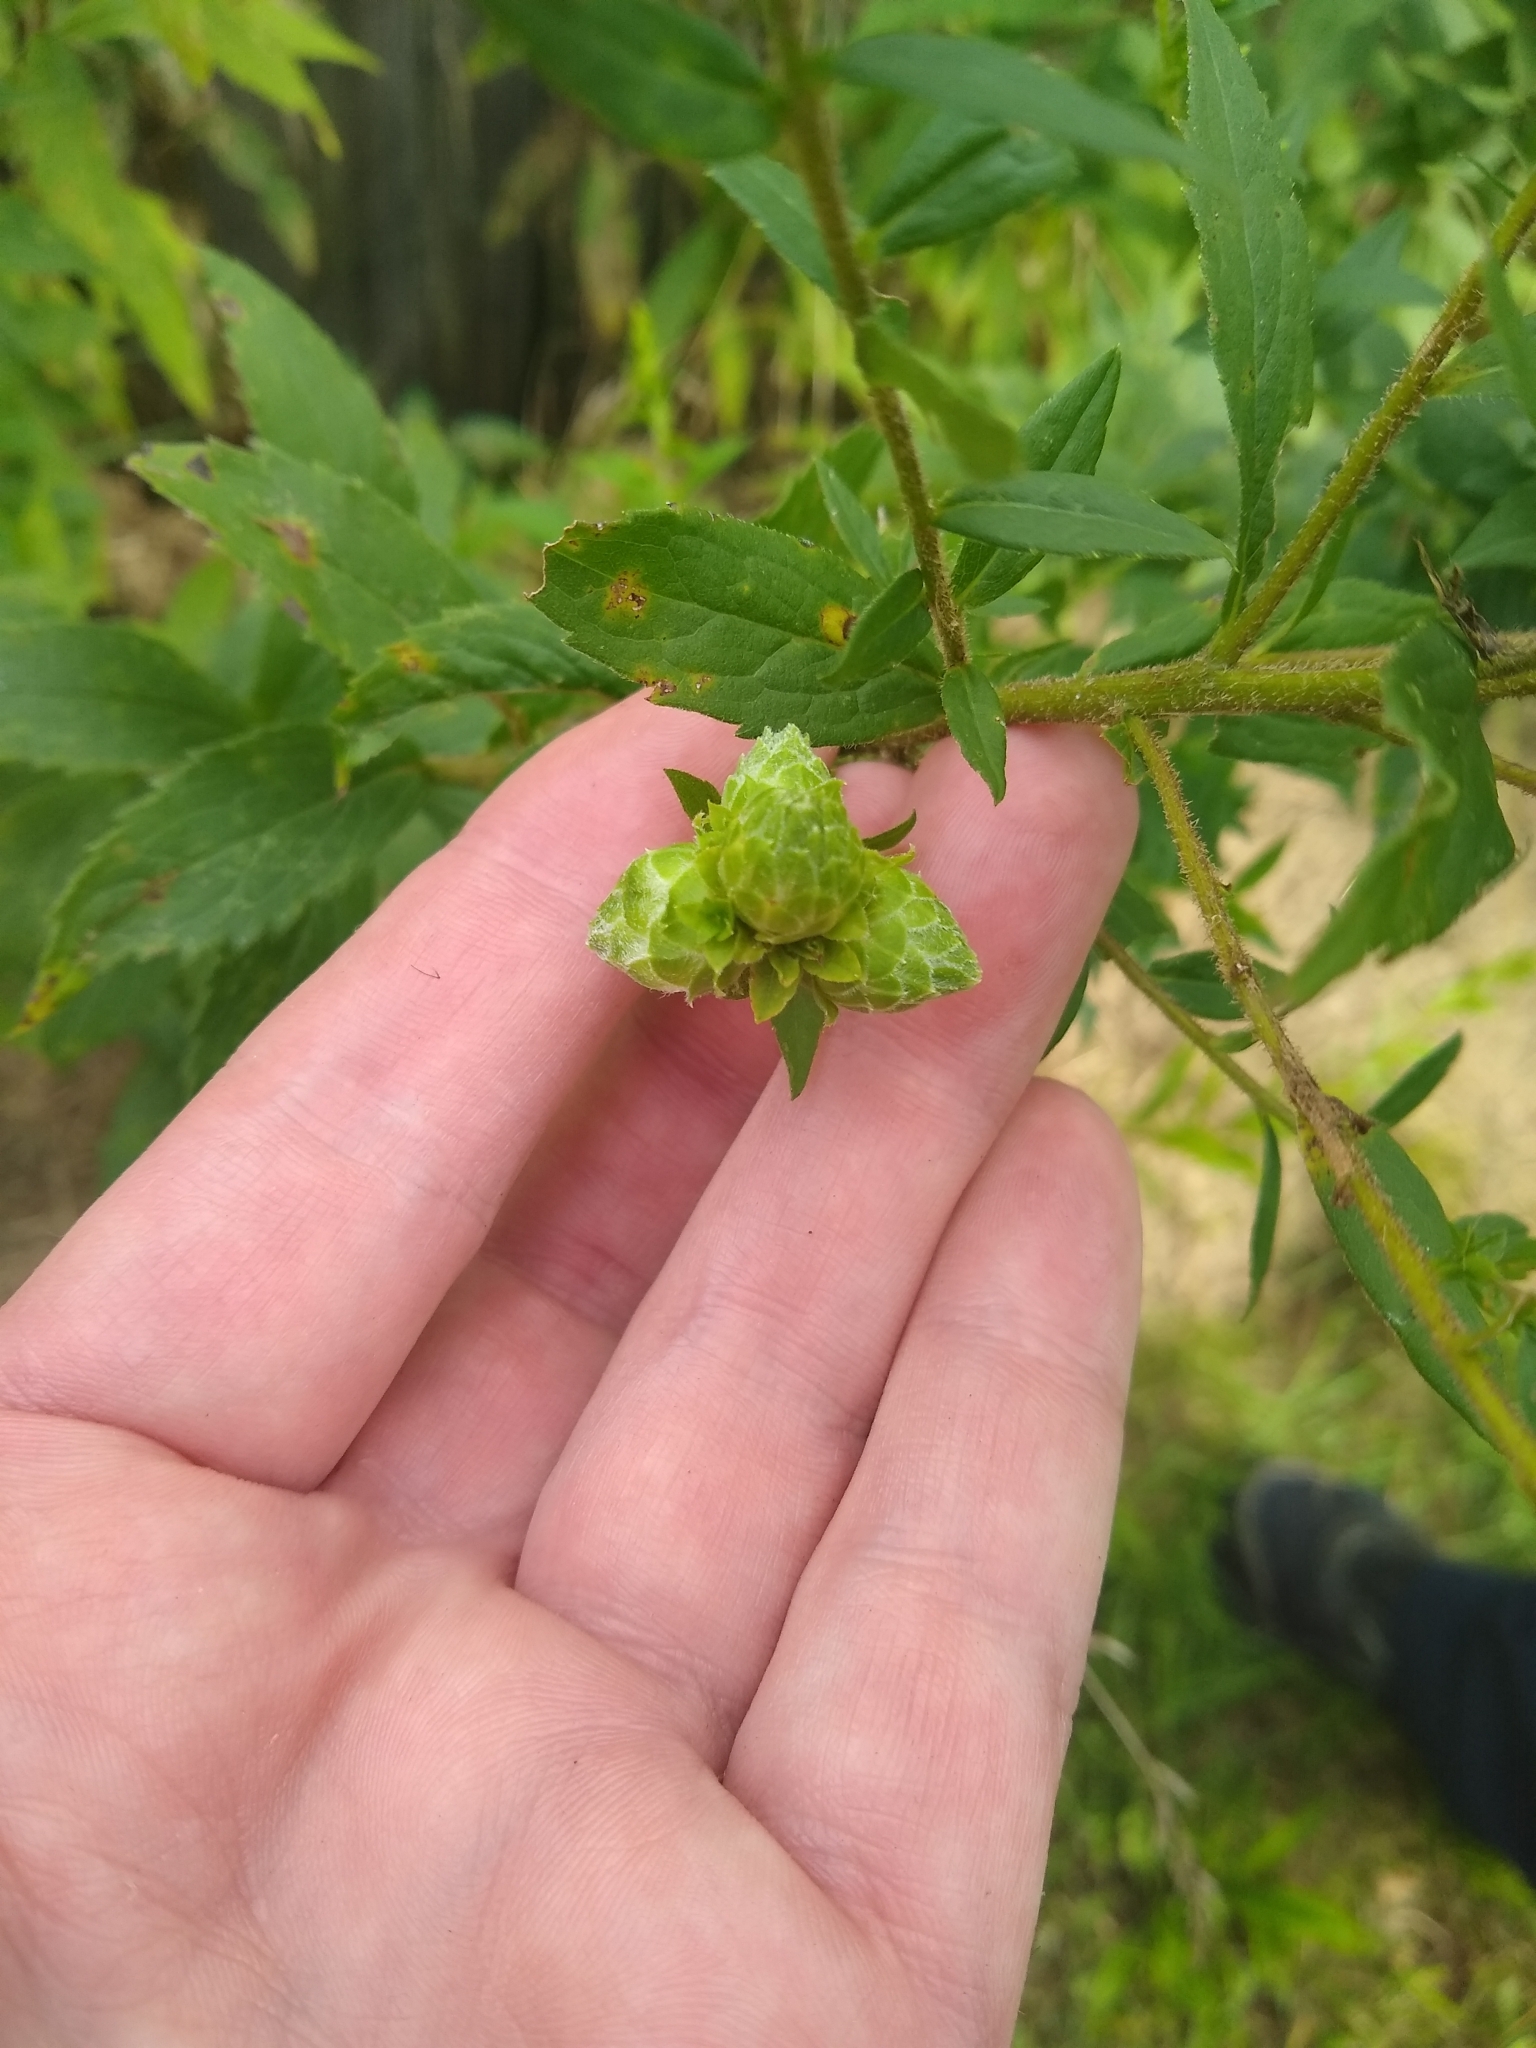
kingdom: Animalia
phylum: Arthropoda
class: Insecta
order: Diptera
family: Tephritidae
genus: Procecidochares
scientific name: Procecidochares atra
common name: Goldenrod brussels sprout gall fly
